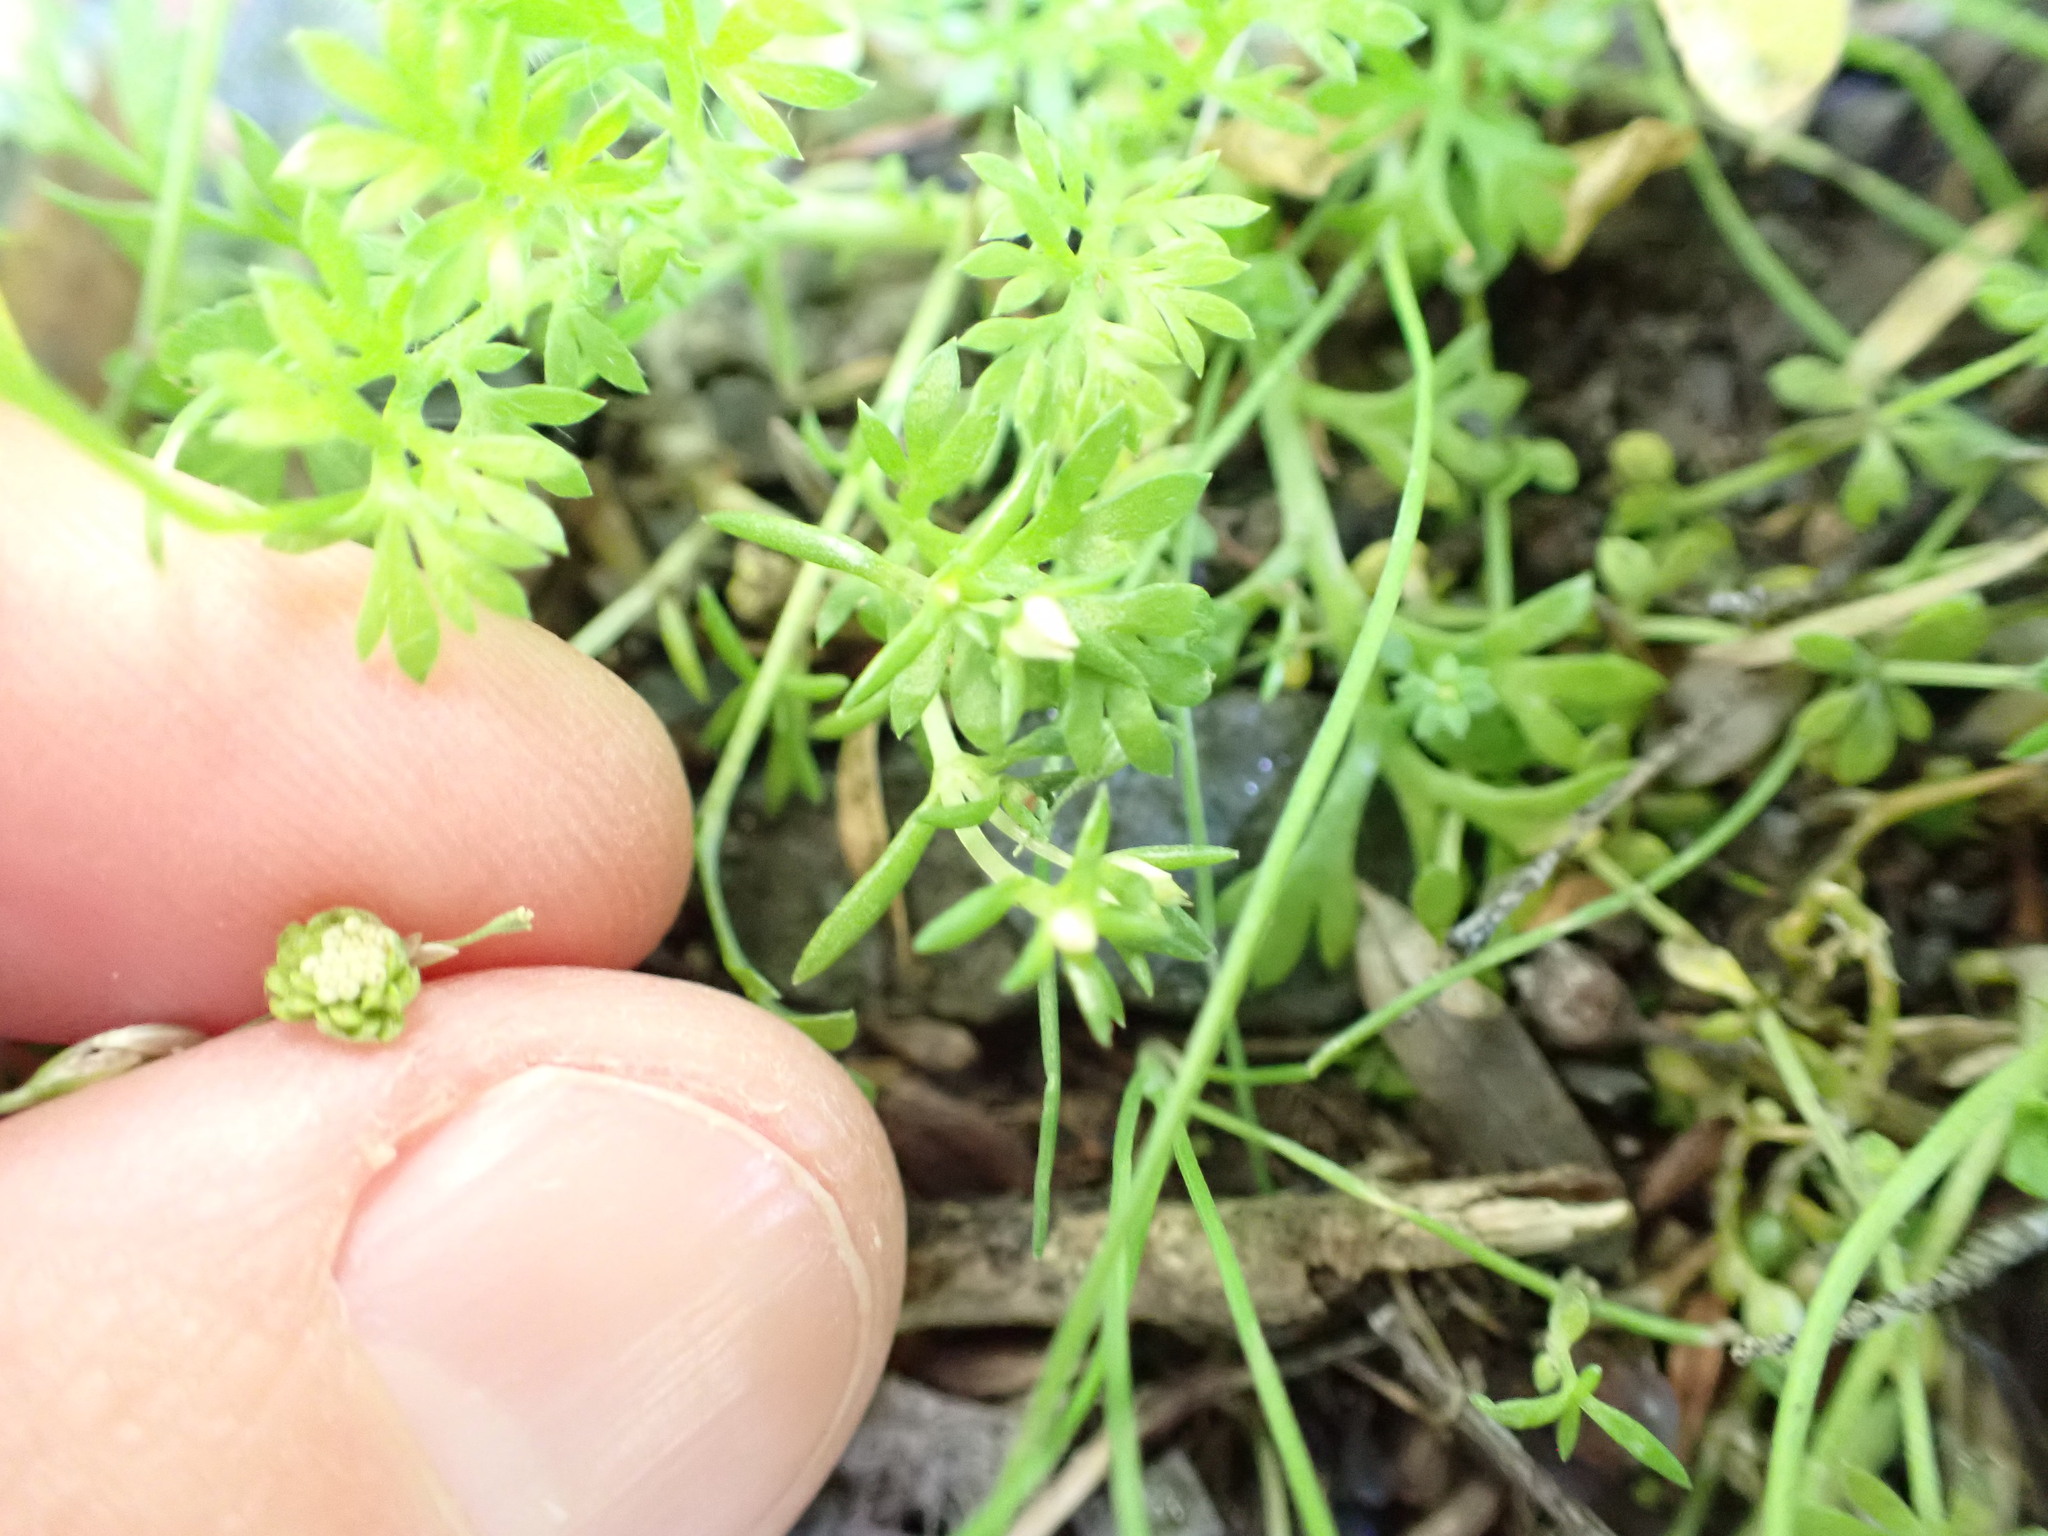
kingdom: Plantae
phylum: Tracheophyta
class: Magnoliopsida
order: Asterales
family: Asteraceae
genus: Cotula
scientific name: Cotula australis
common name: Australian waterbuttons
